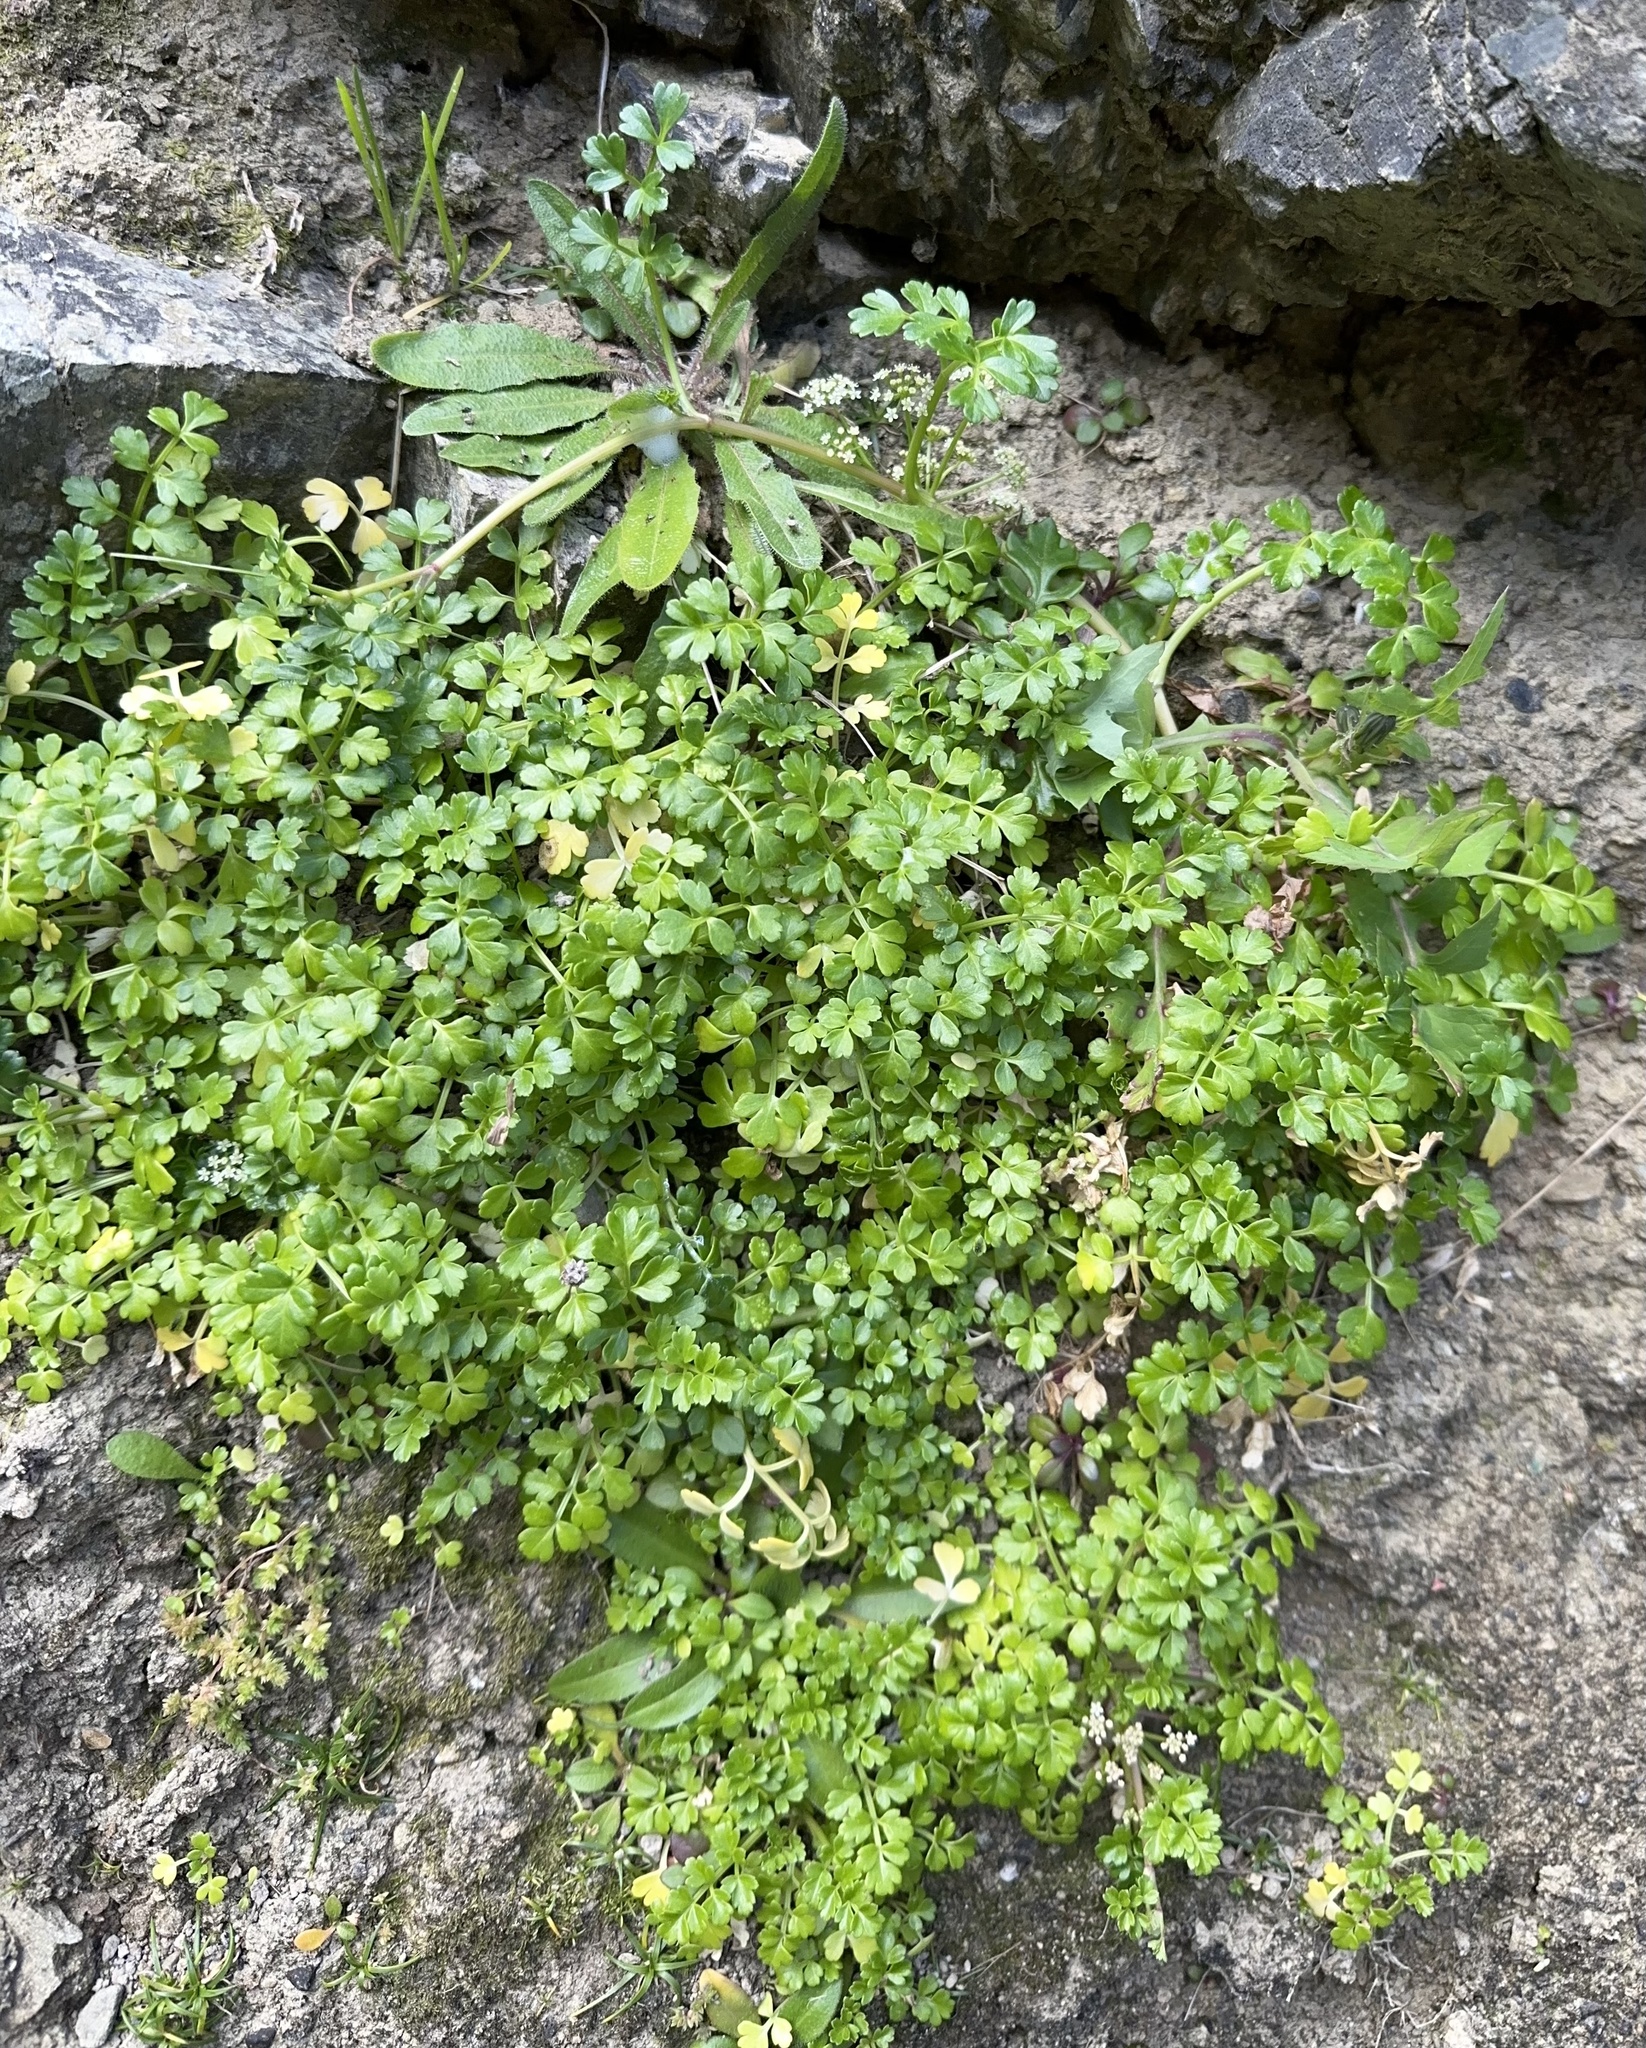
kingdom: Plantae
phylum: Tracheophyta
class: Magnoliopsida
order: Apiales
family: Apiaceae
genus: Apium
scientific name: Apium prostratum
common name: Prostrate marshwort
